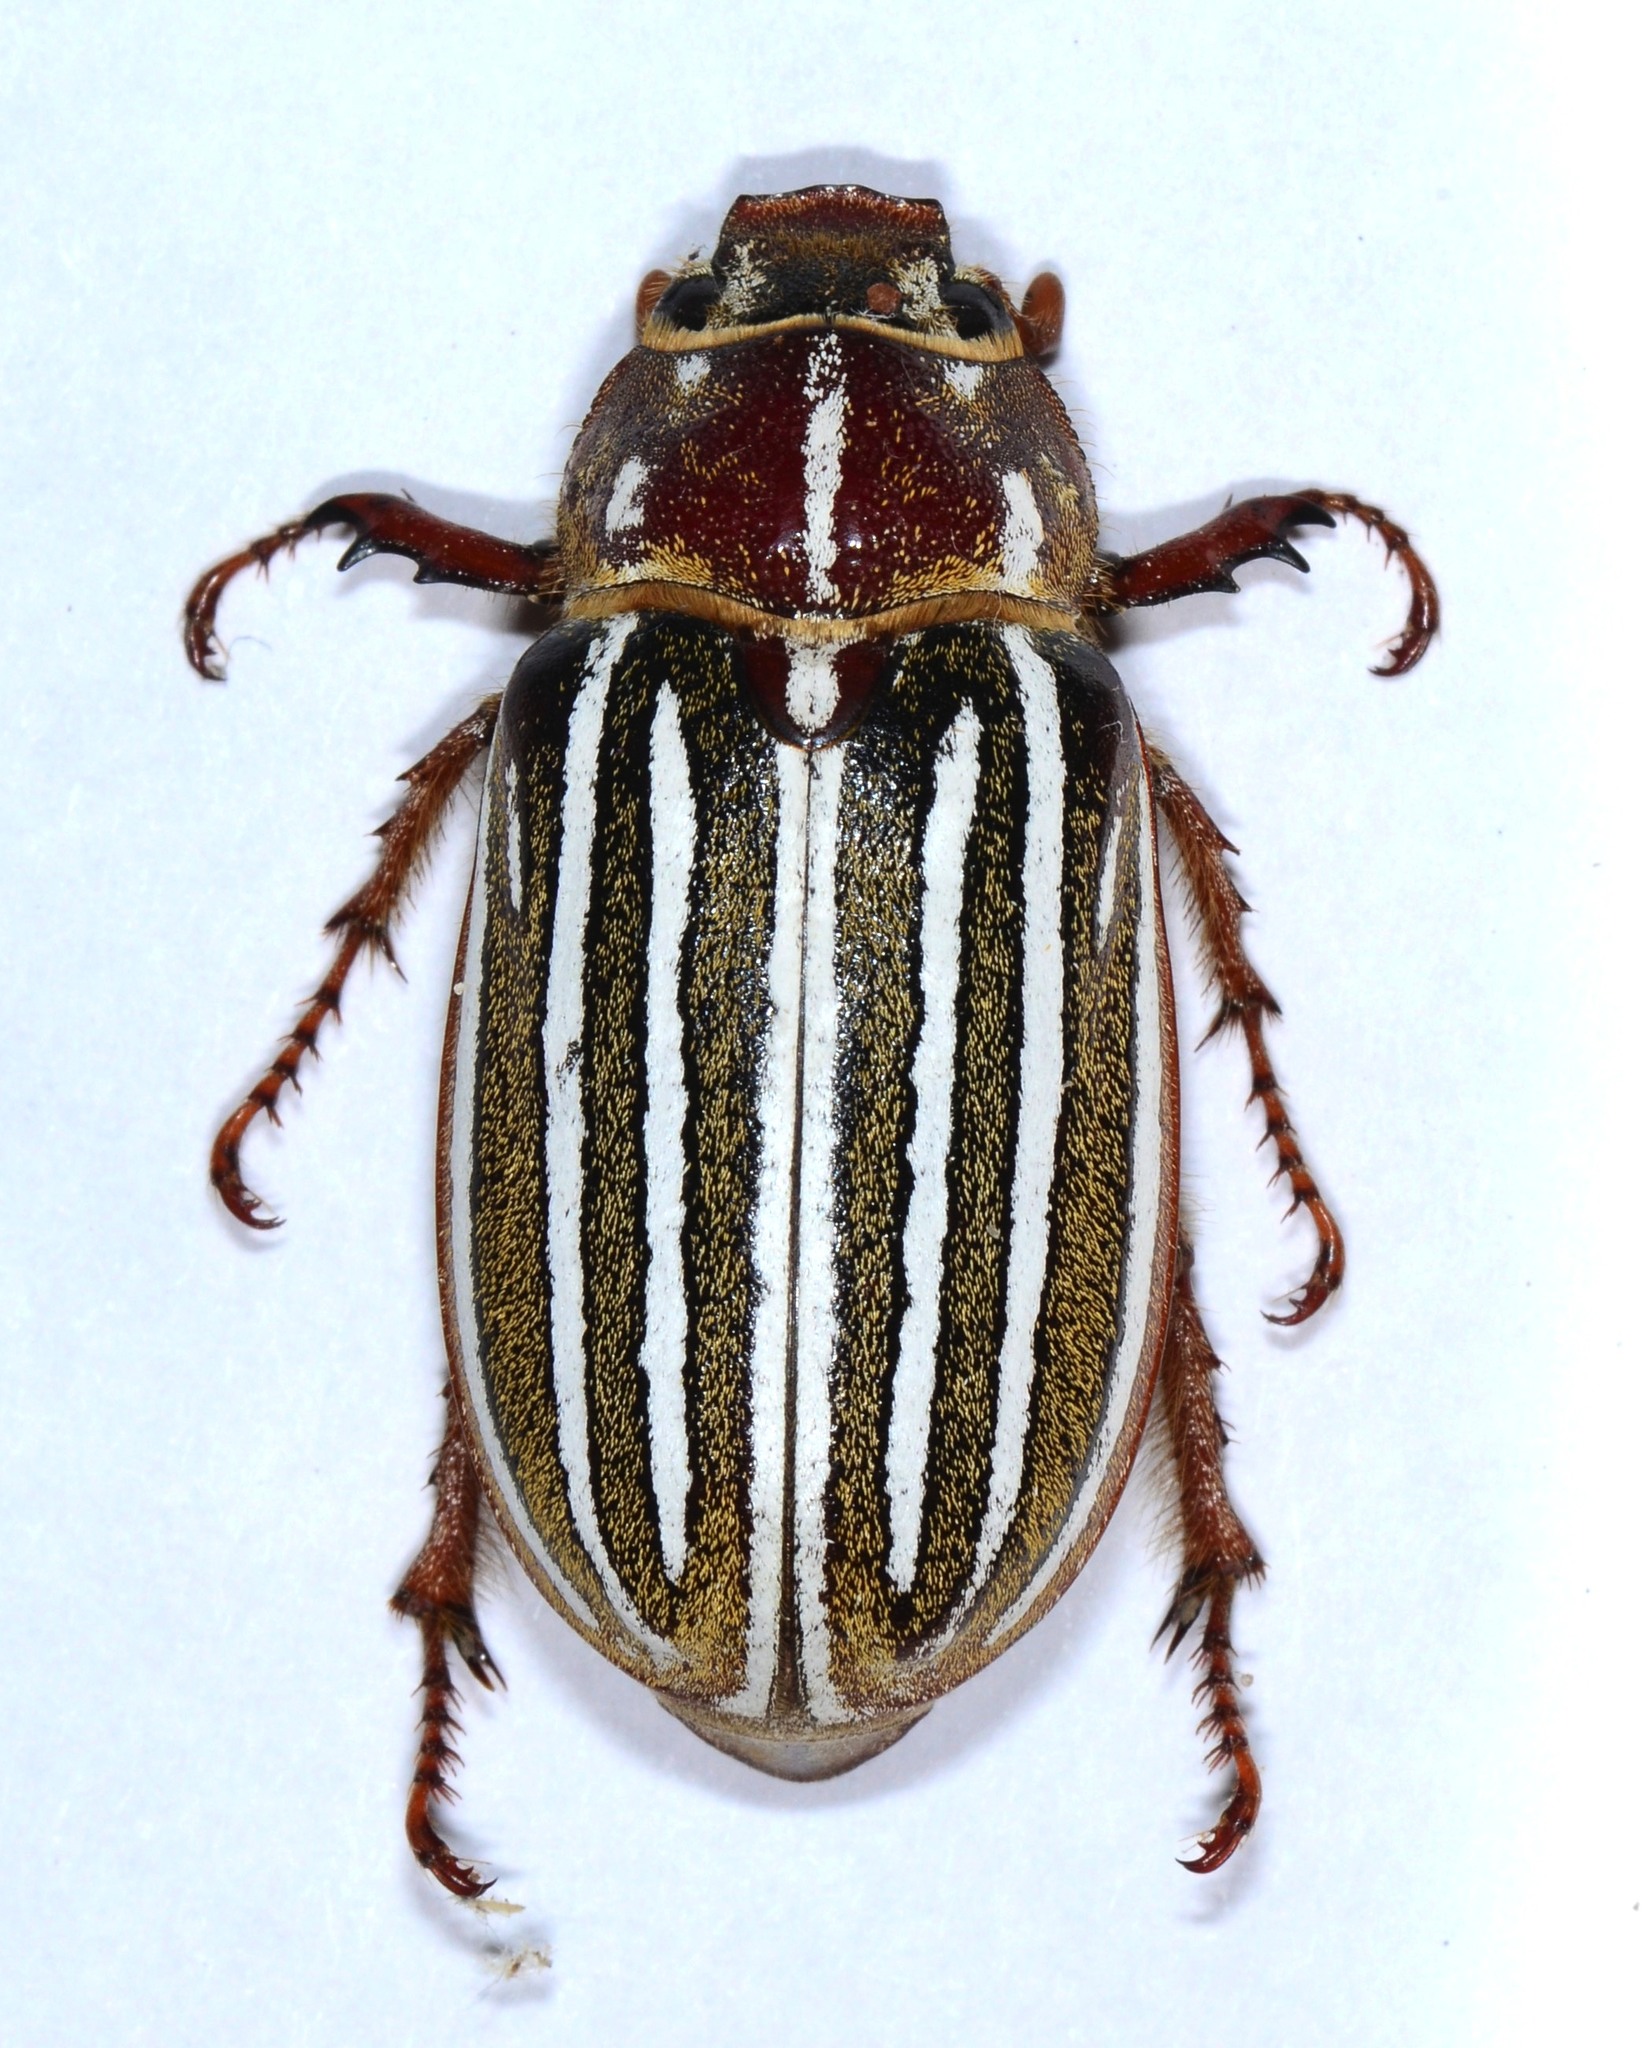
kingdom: Animalia
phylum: Arthropoda
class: Insecta
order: Coleoptera
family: Scarabaeidae
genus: Polyphylla
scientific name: Polyphylla decemlineata
